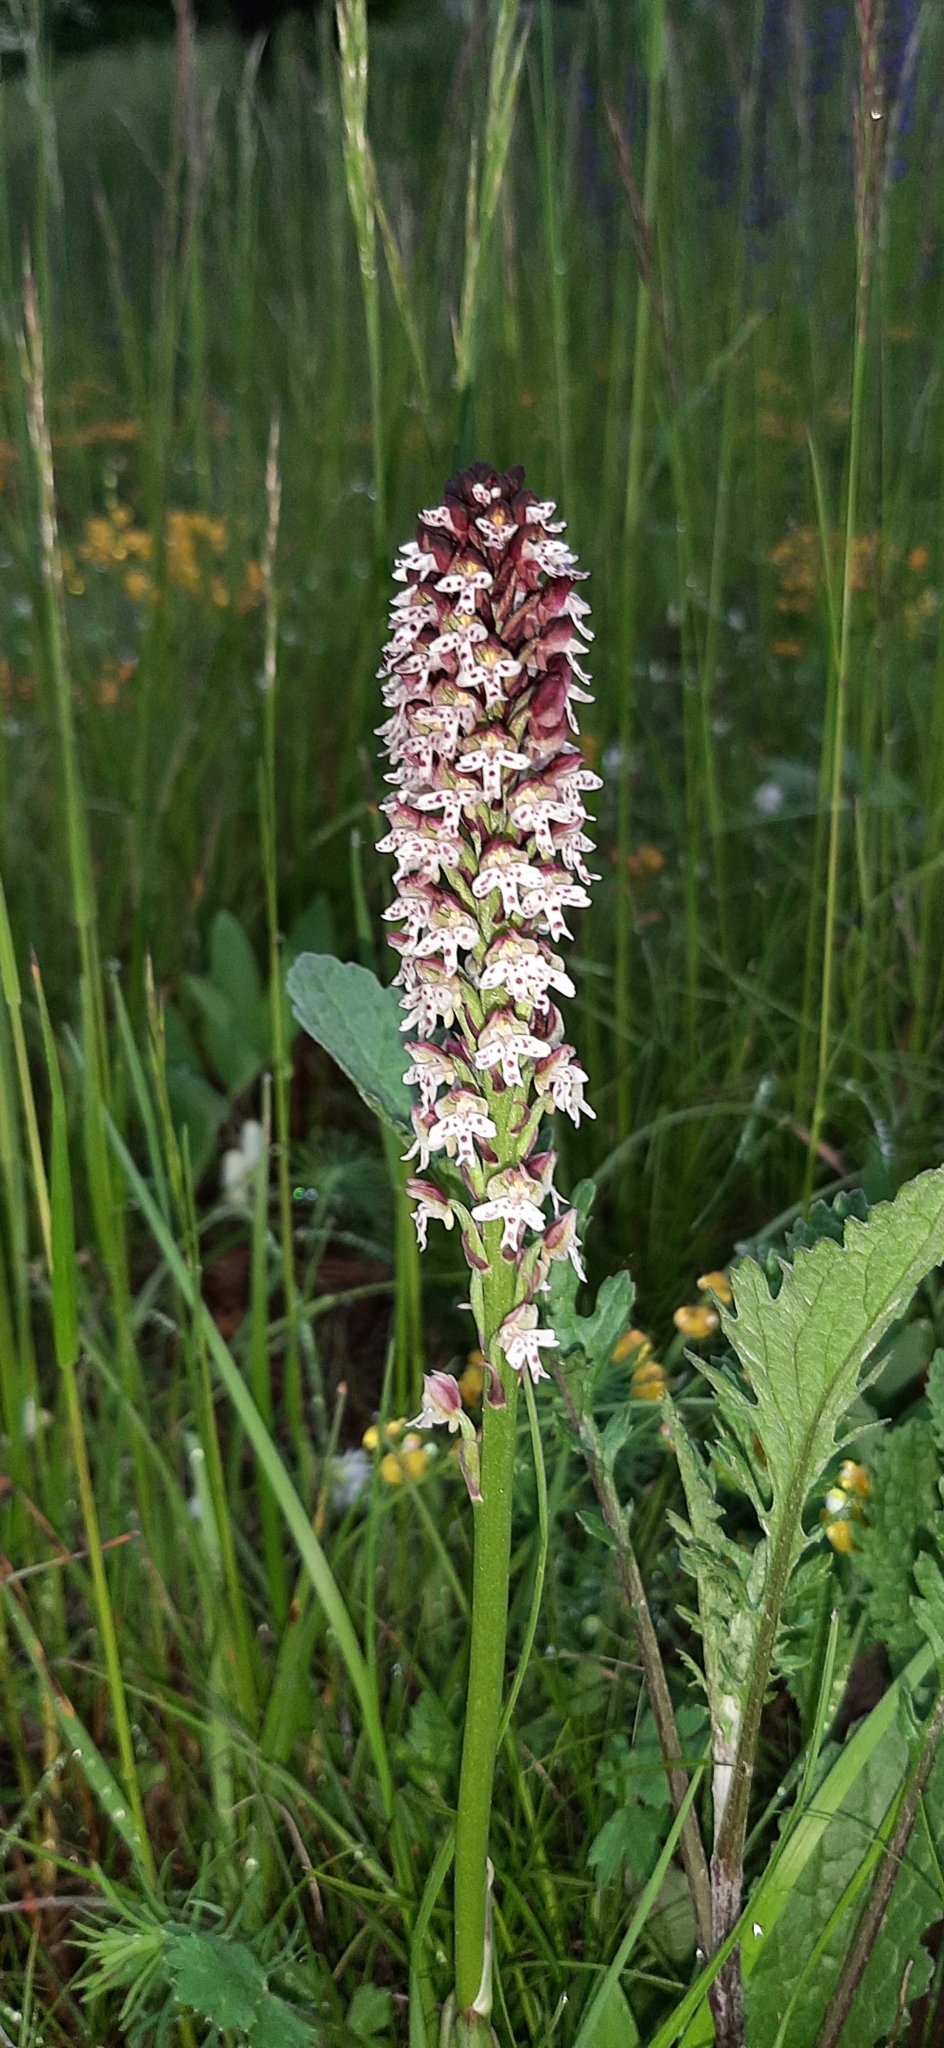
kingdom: Plantae
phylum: Tracheophyta
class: Liliopsida
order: Asparagales
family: Orchidaceae
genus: Neotinea
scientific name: Neotinea ustulata
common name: Burnt orchid
